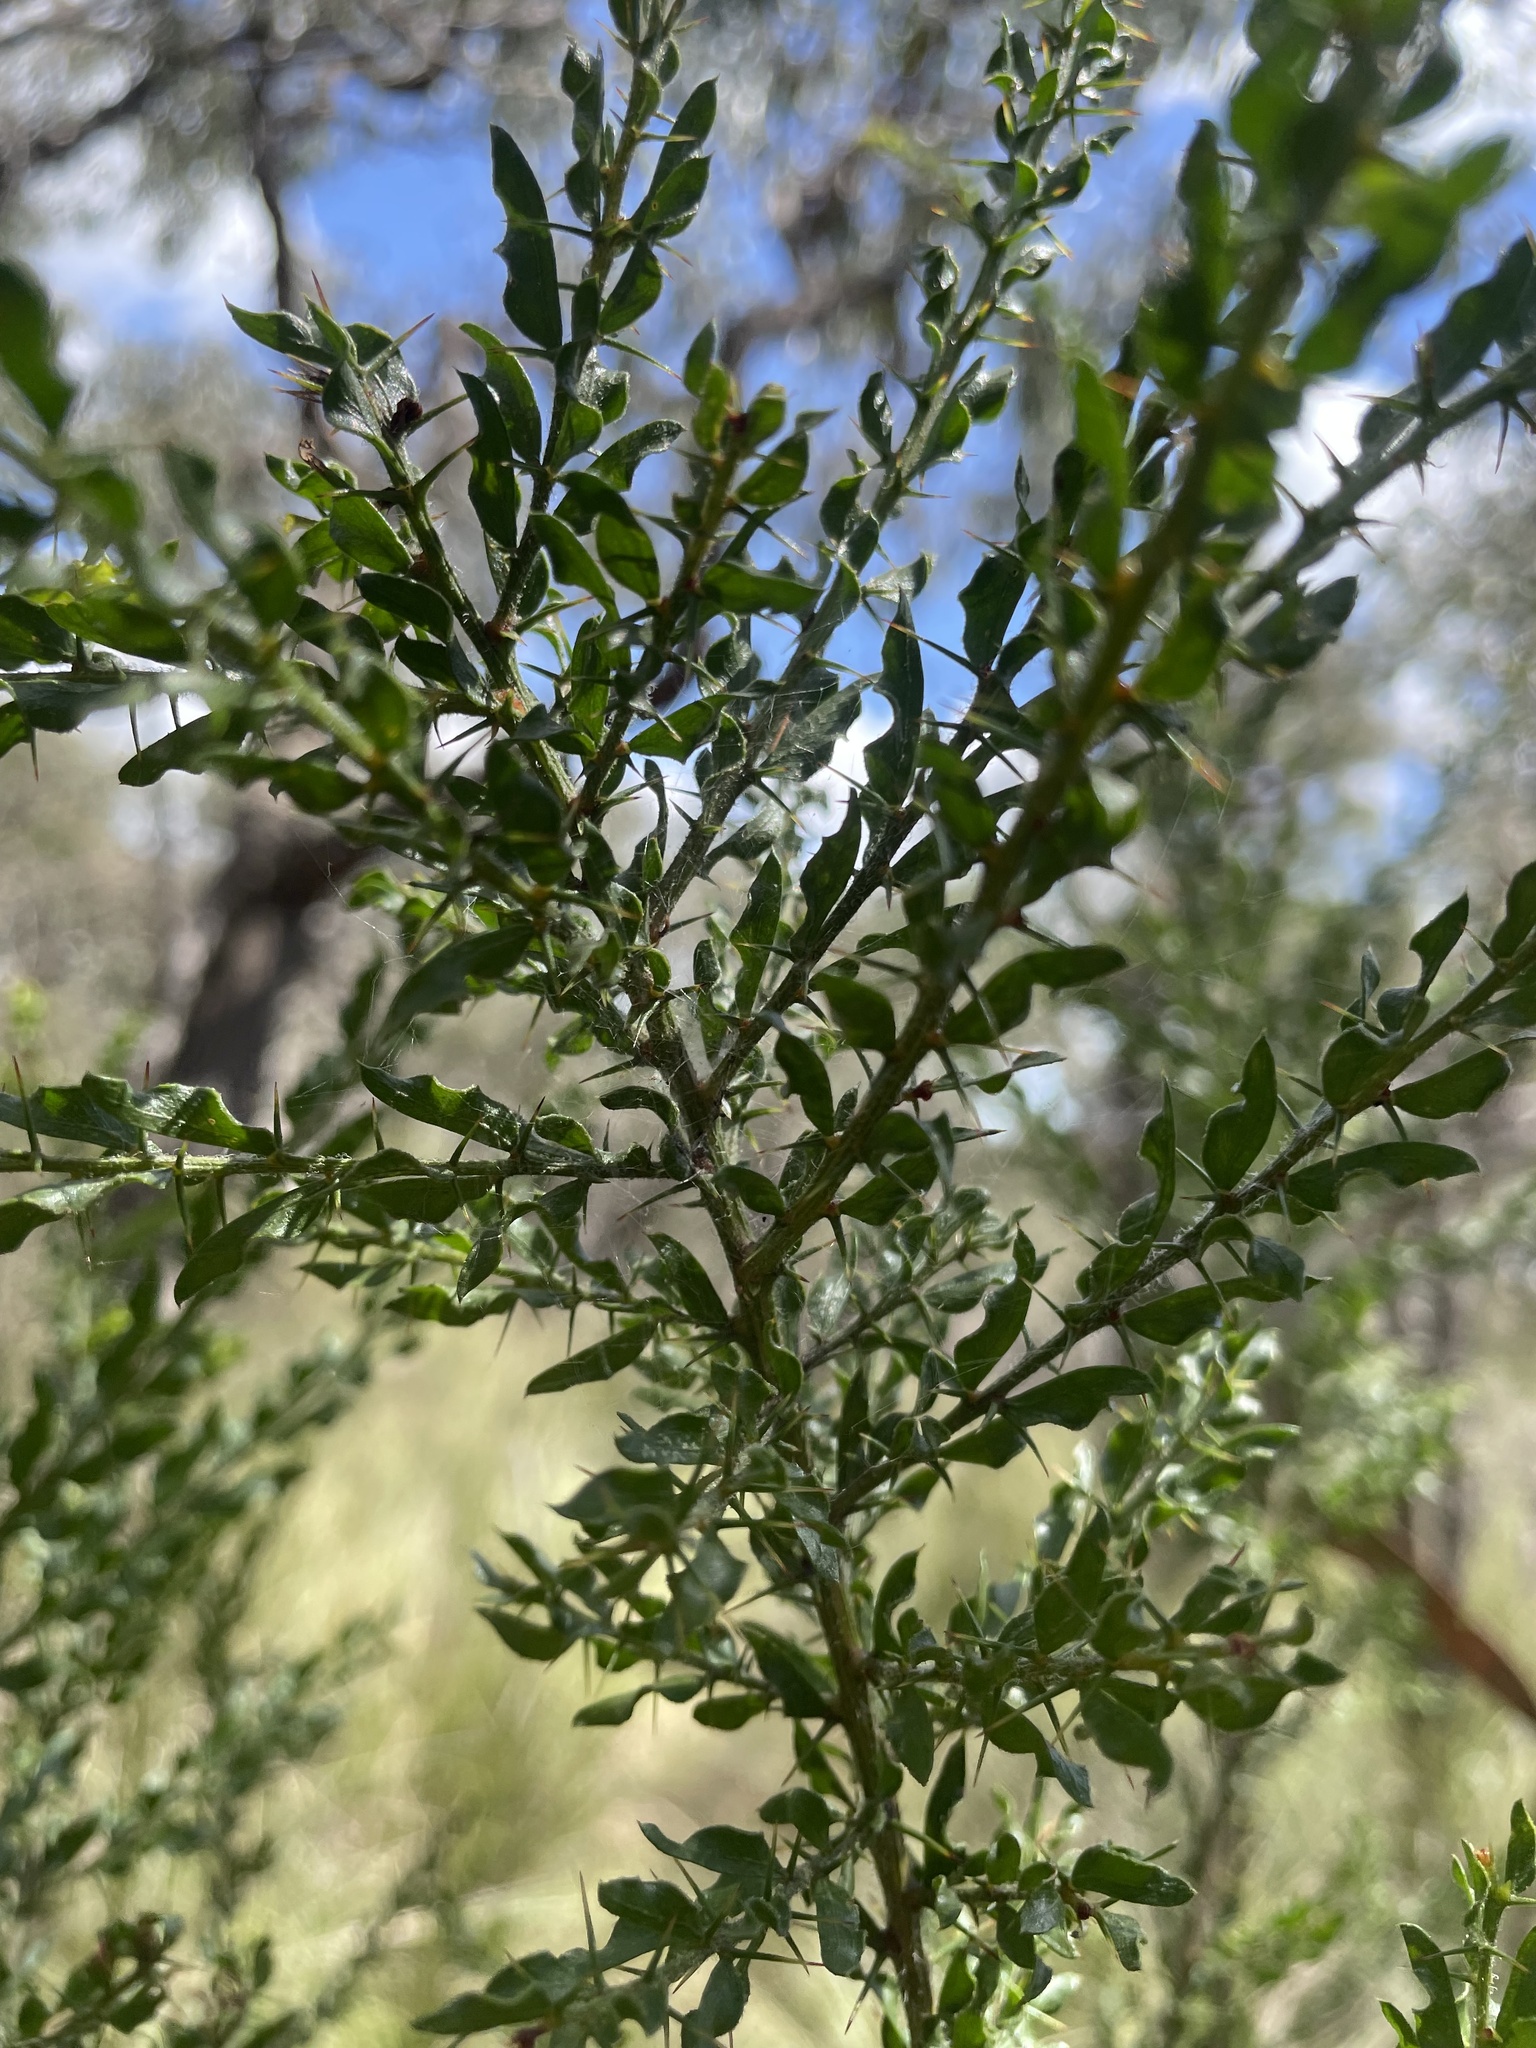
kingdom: Plantae
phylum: Tracheophyta
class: Magnoliopsida
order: Fabales
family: Fabaceae
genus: Acacia
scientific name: Acacia paradoxa
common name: Paradox acacia
